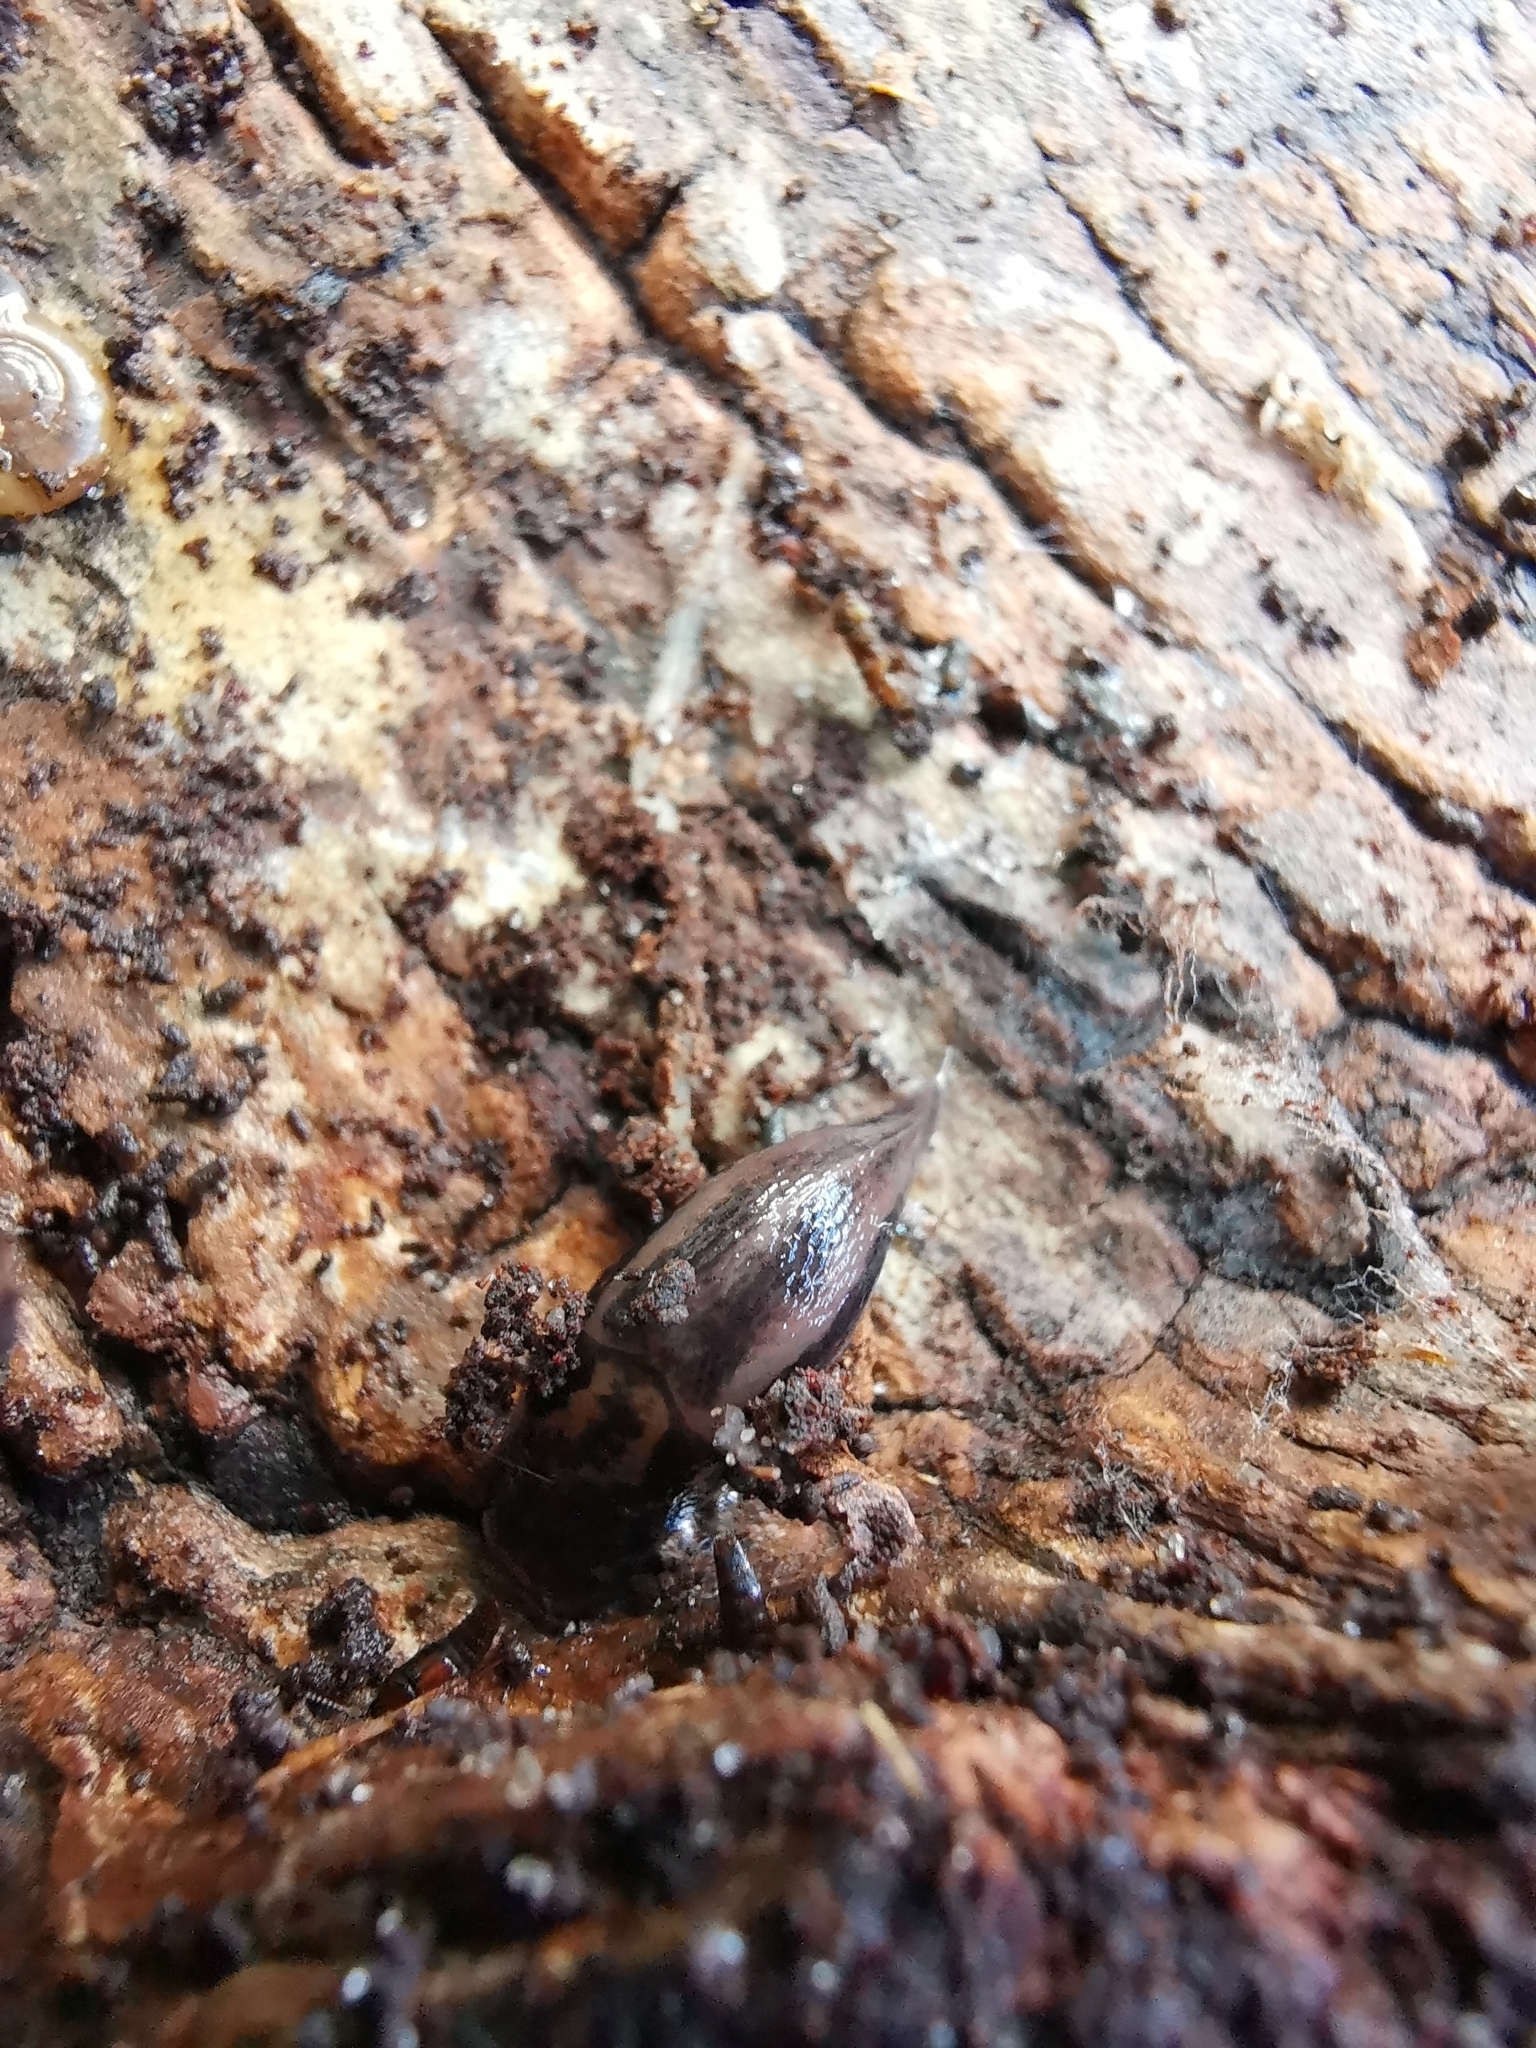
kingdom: Animalia
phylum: Mollusca
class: Gastropoda
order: Stylommatophora
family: Limacidae
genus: Limax
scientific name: Limax maximus
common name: Great grey slug
